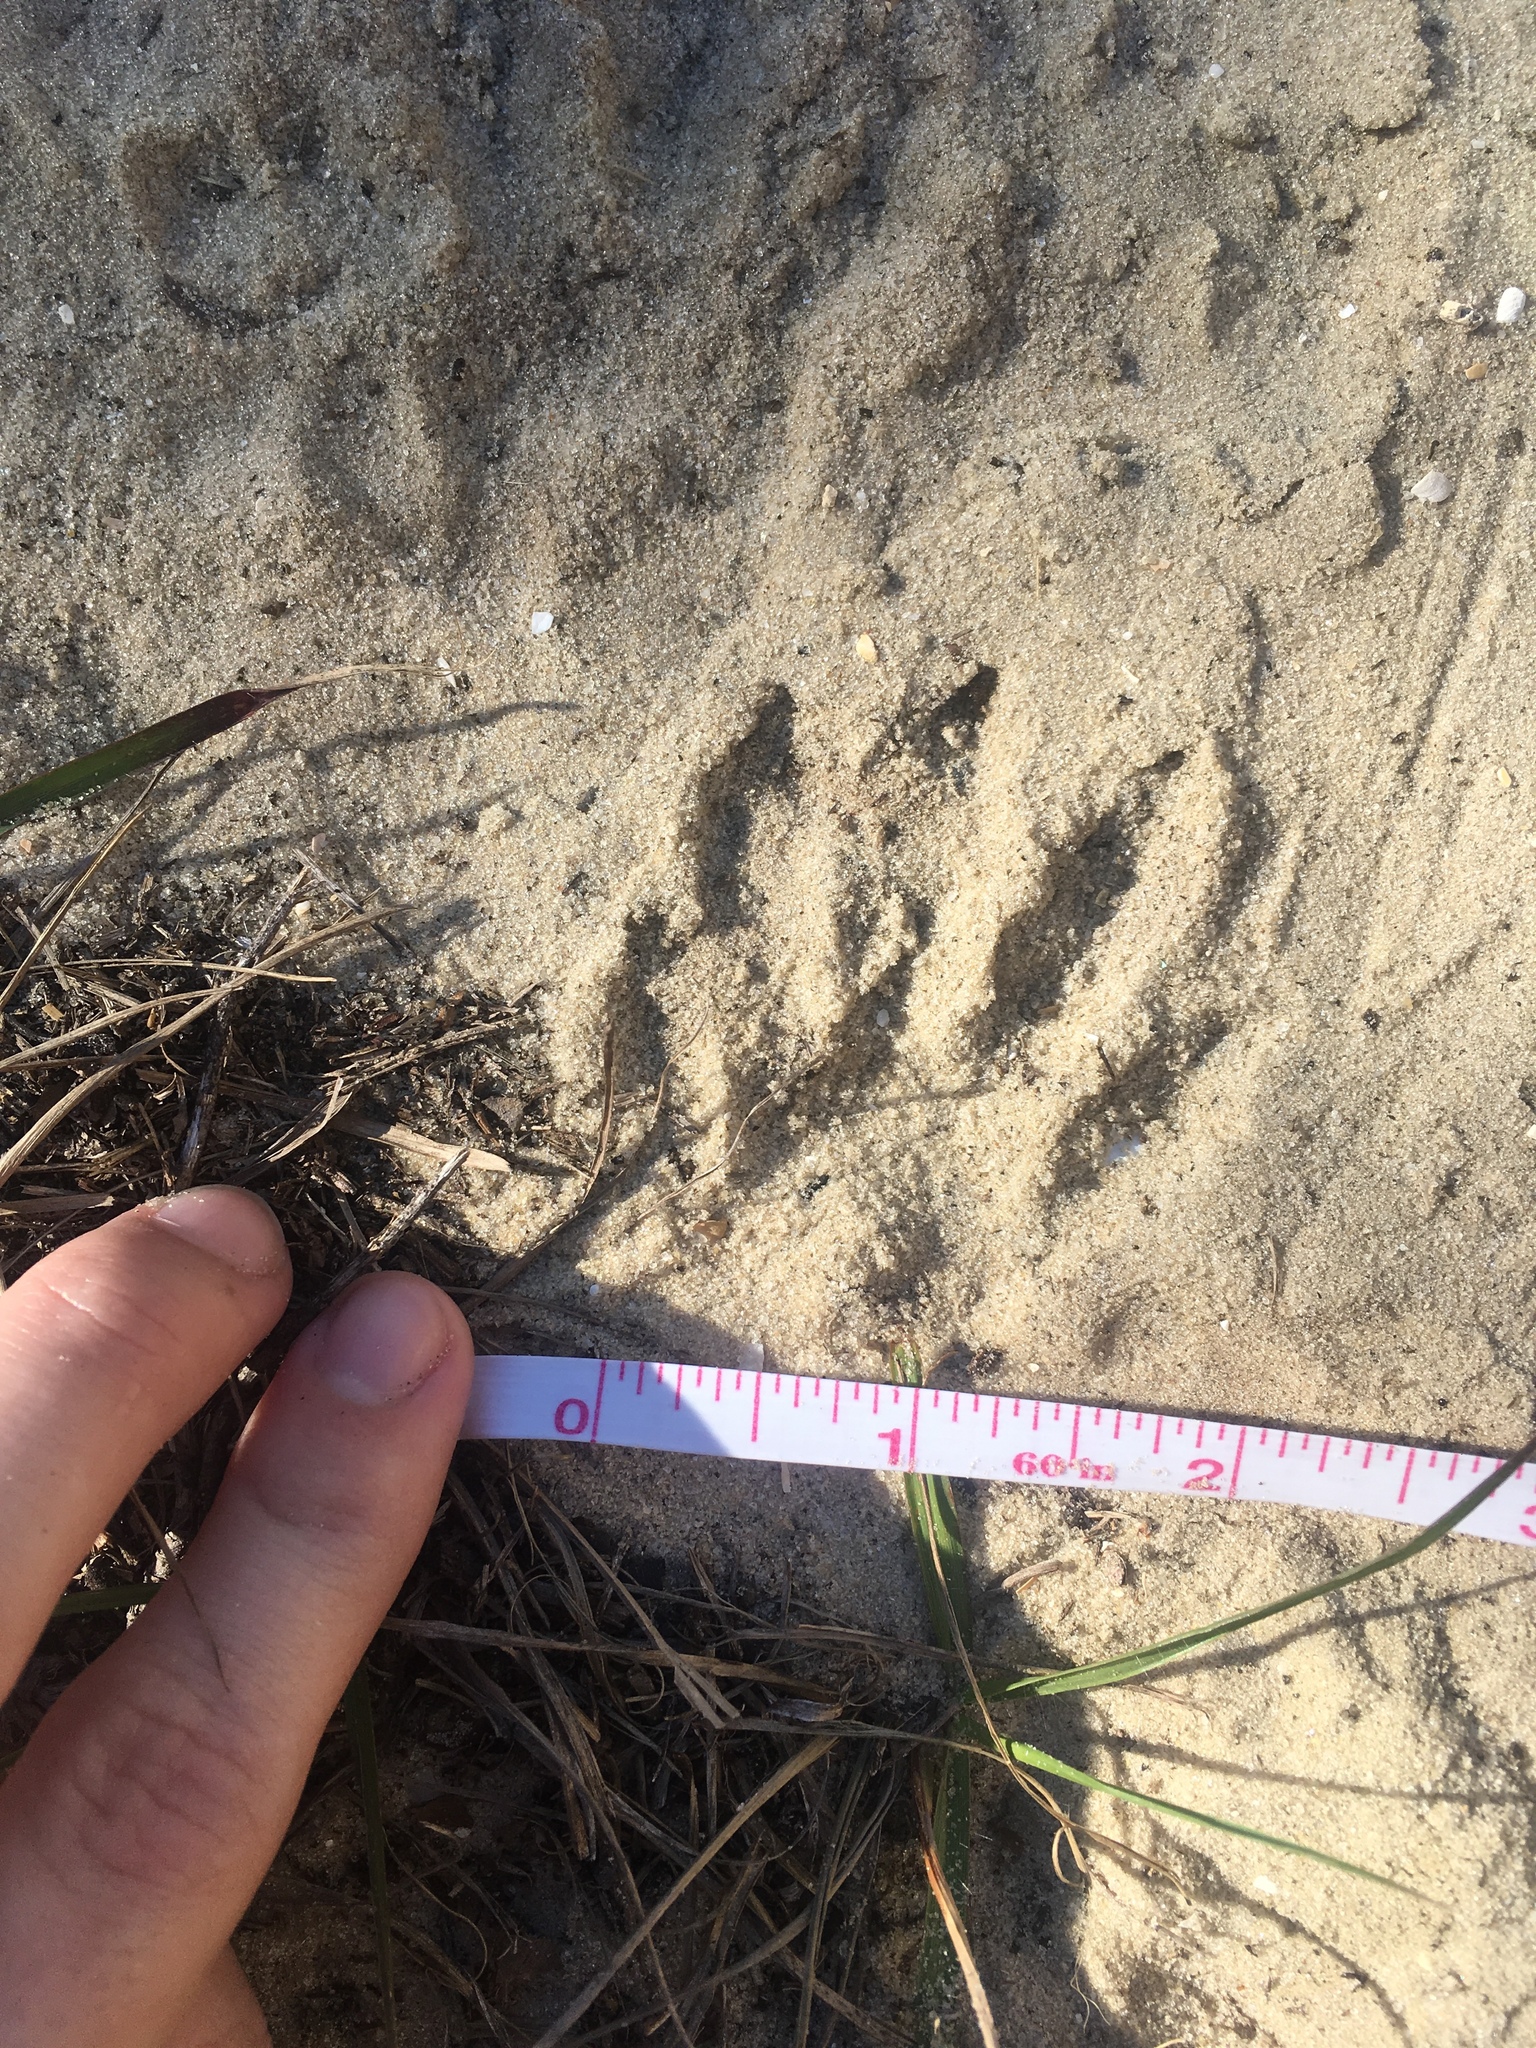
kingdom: Animalia
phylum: Chordata
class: Mammalia
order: Carnivora
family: Procyonidae
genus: Procyon
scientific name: Procyon lotor
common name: Raccoon
